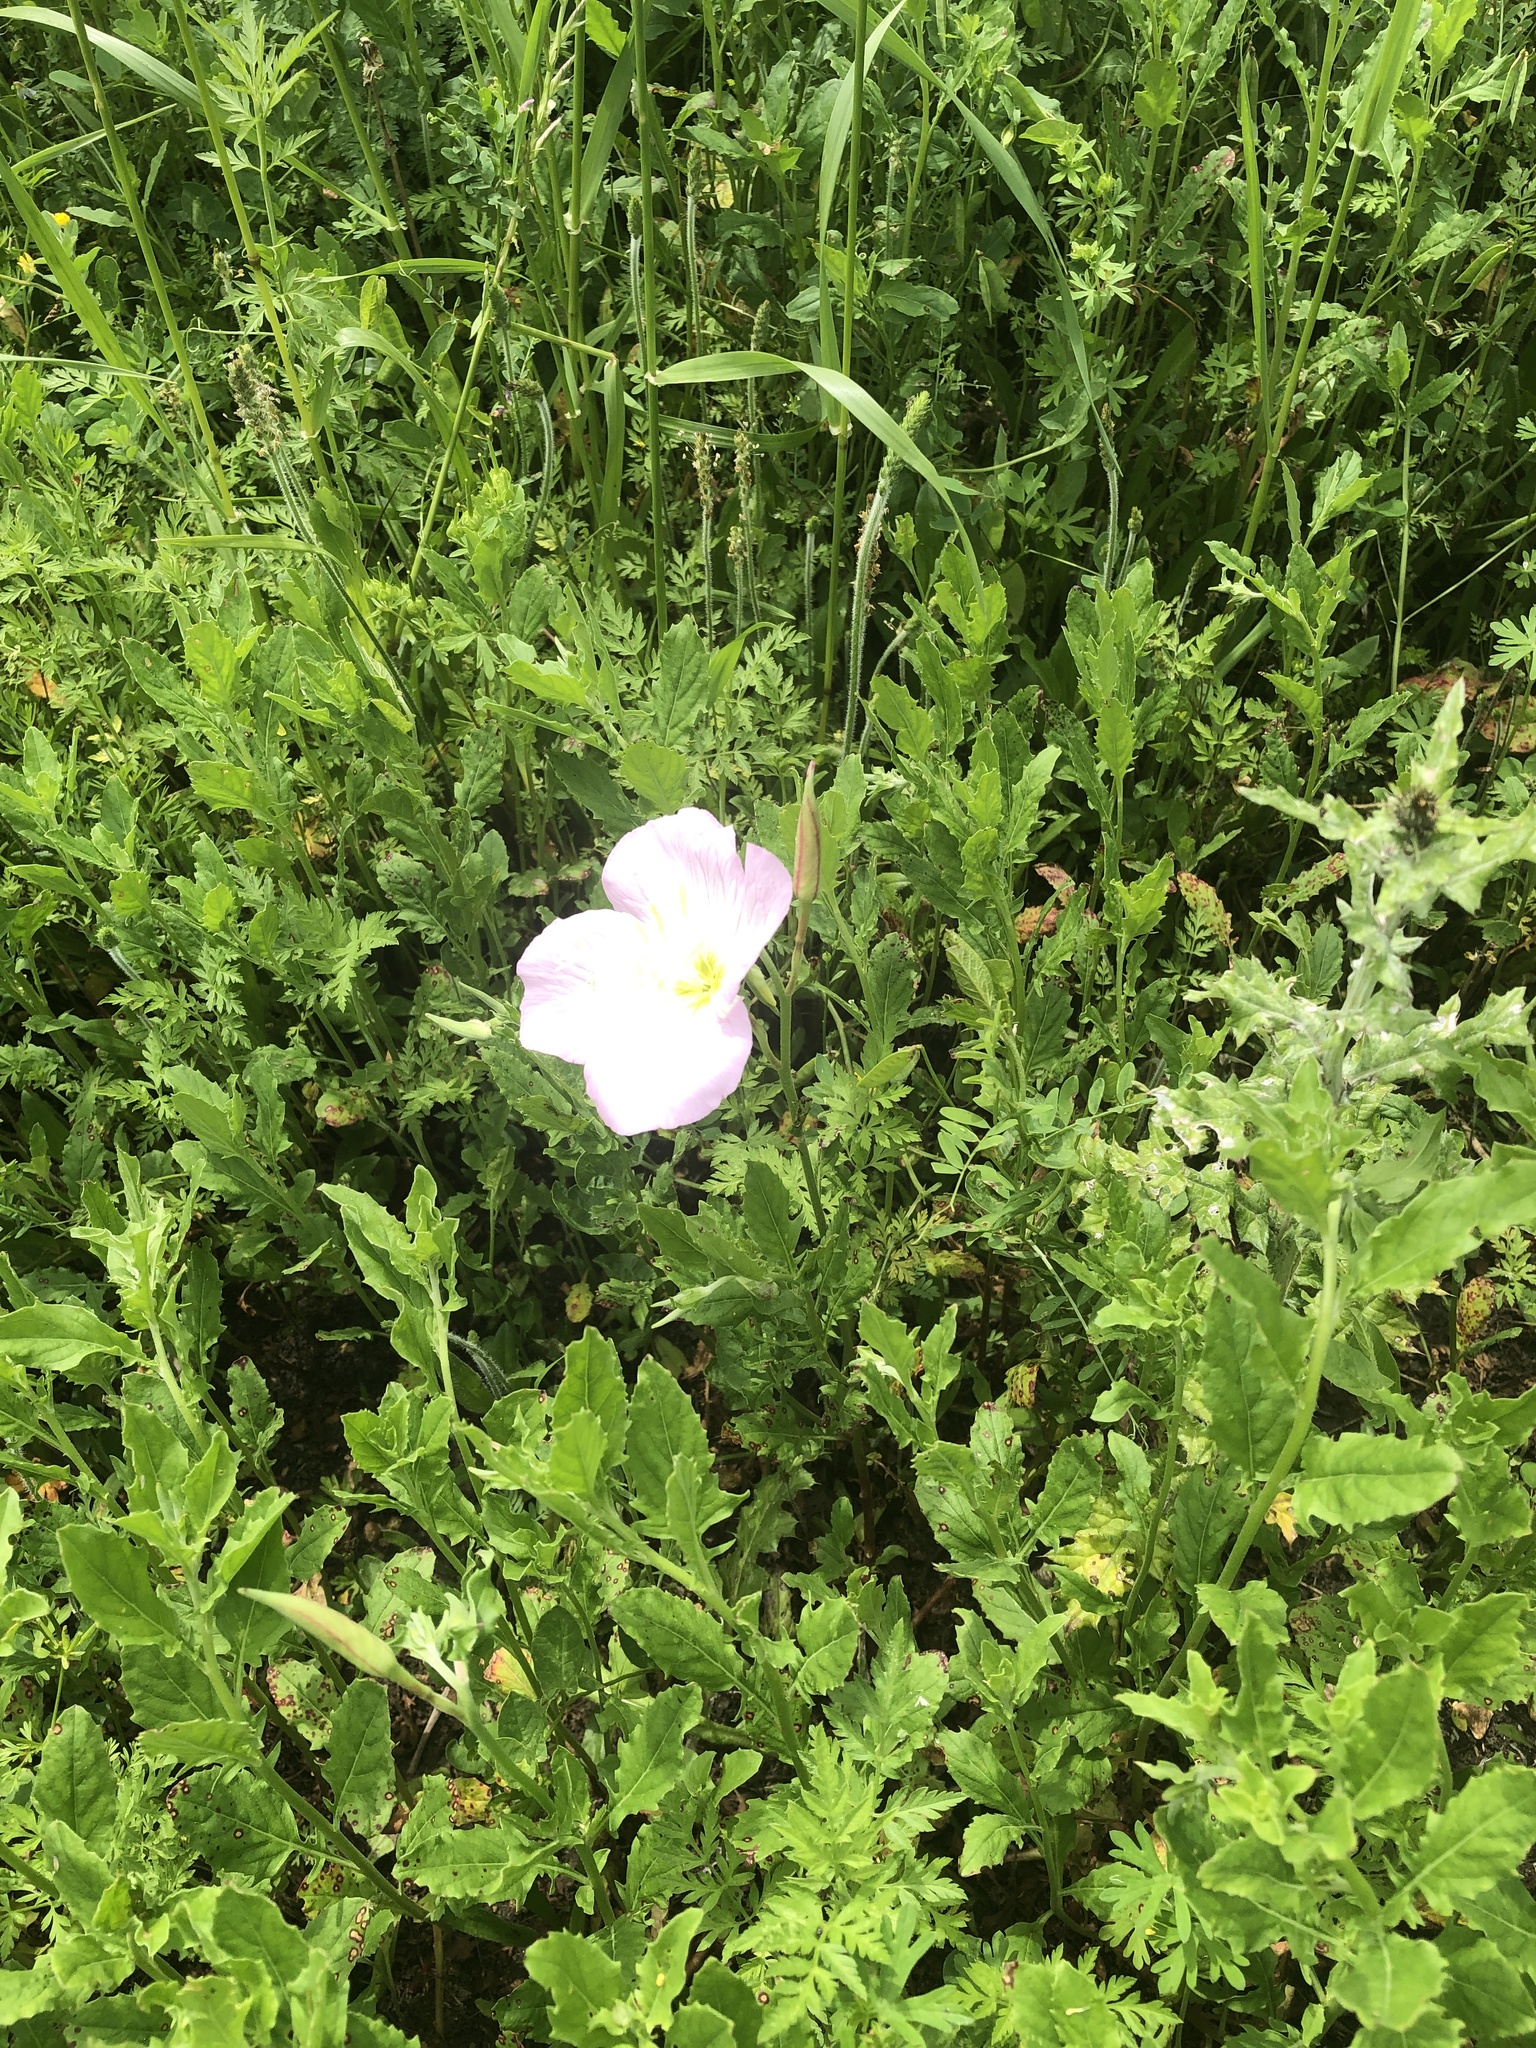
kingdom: Plantae
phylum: Tracheophyta
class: Magnoliopsida
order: Myrtales
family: Onagraceae
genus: Oenothera
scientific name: Oenothera speciosa
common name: White evening-primrose
